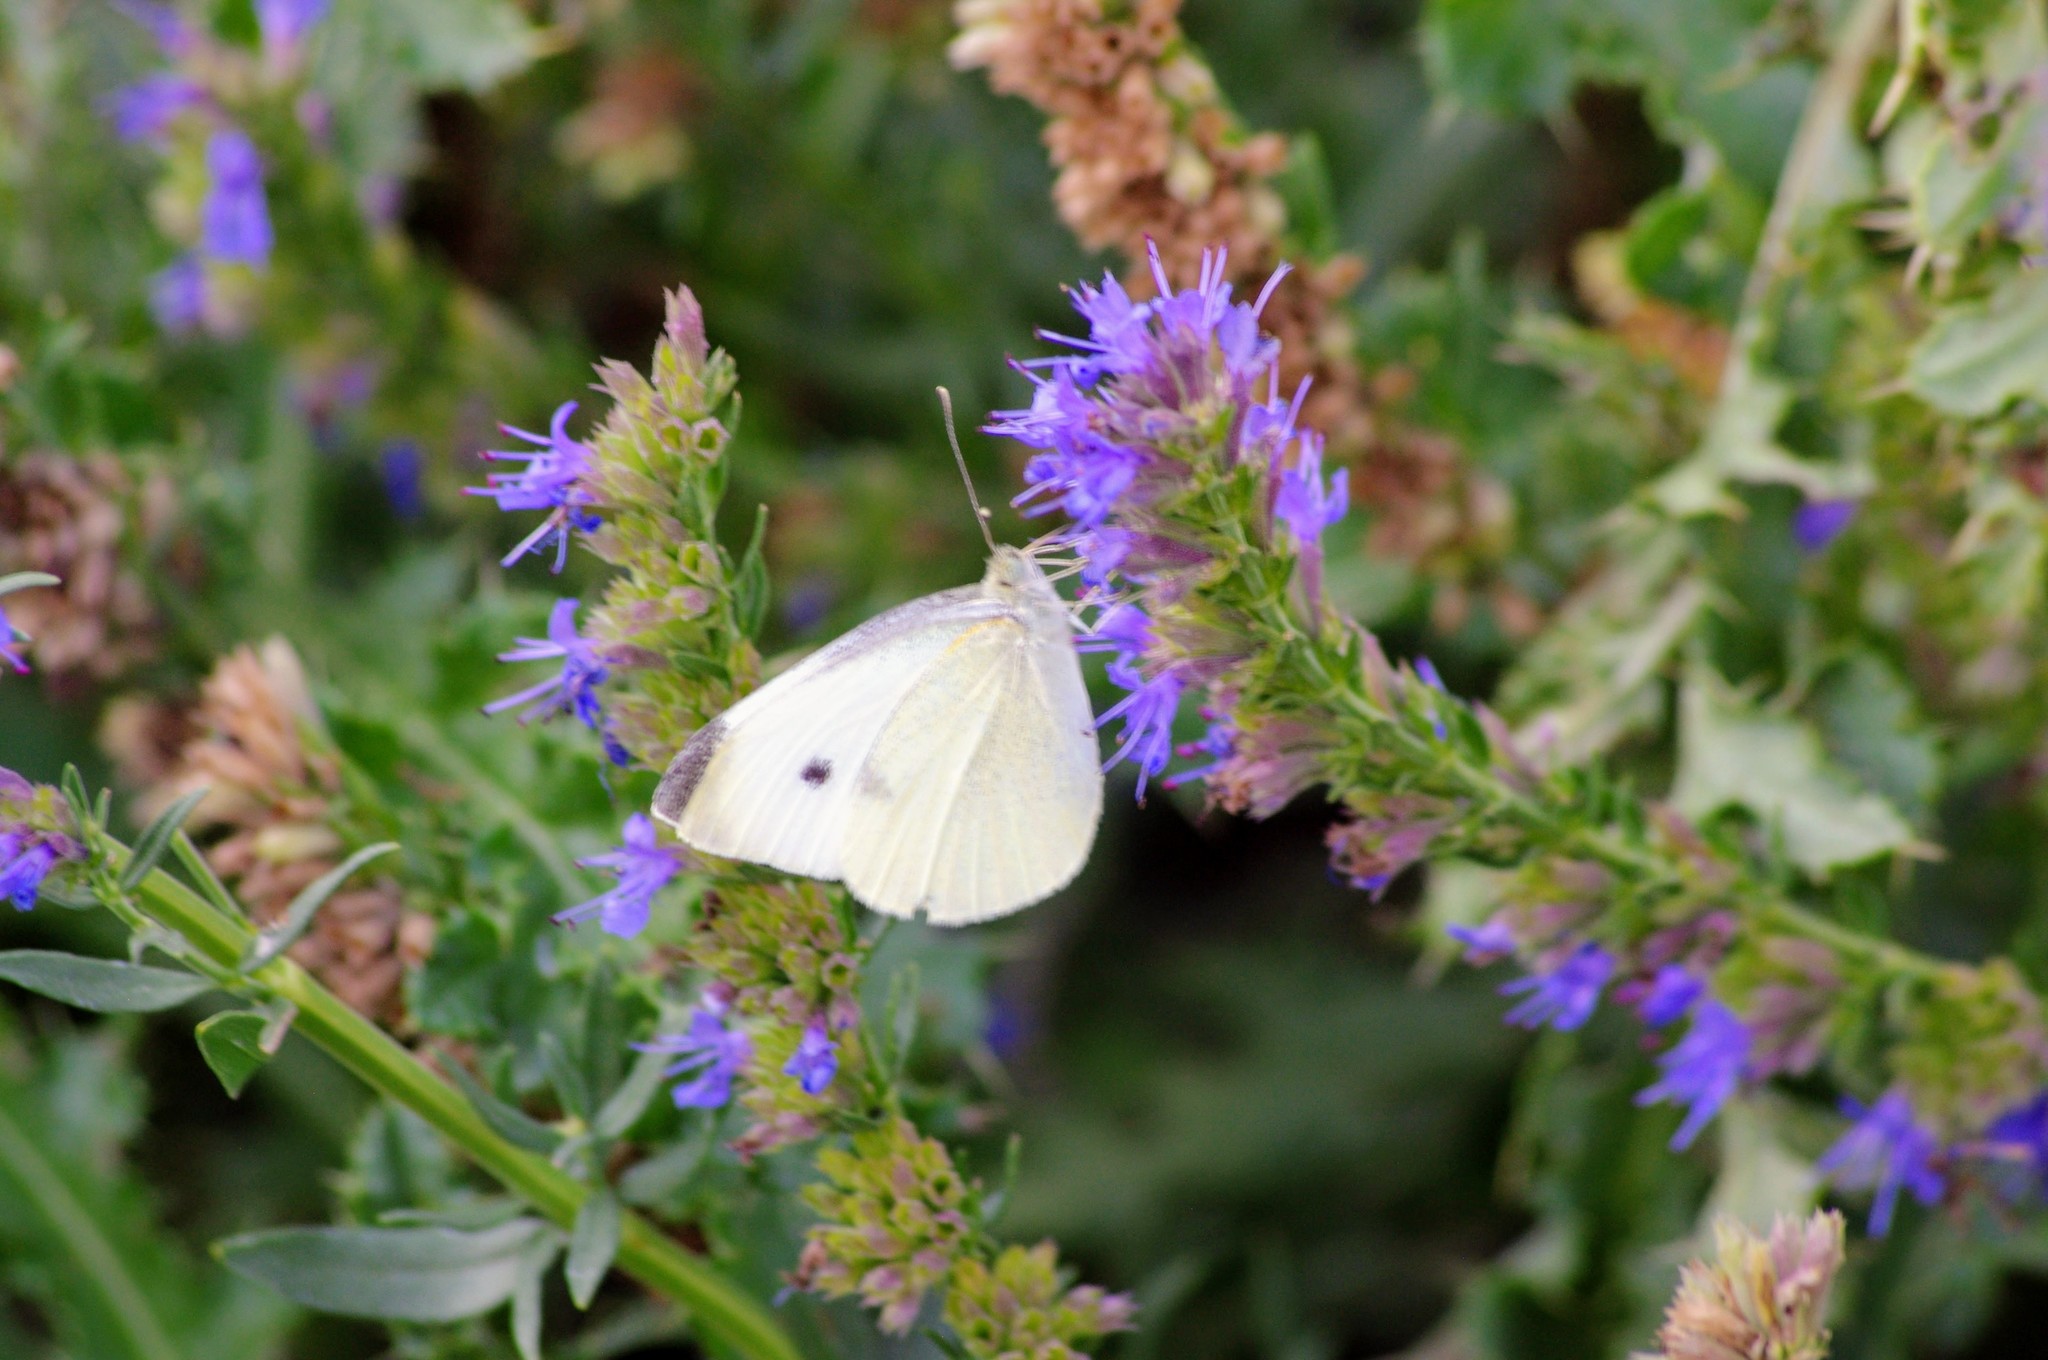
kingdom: Animalia
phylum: Arthropoda
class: Insecta
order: Lepidoptera
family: Pieridae
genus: Pieris
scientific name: Pieris rapae
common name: Small white
